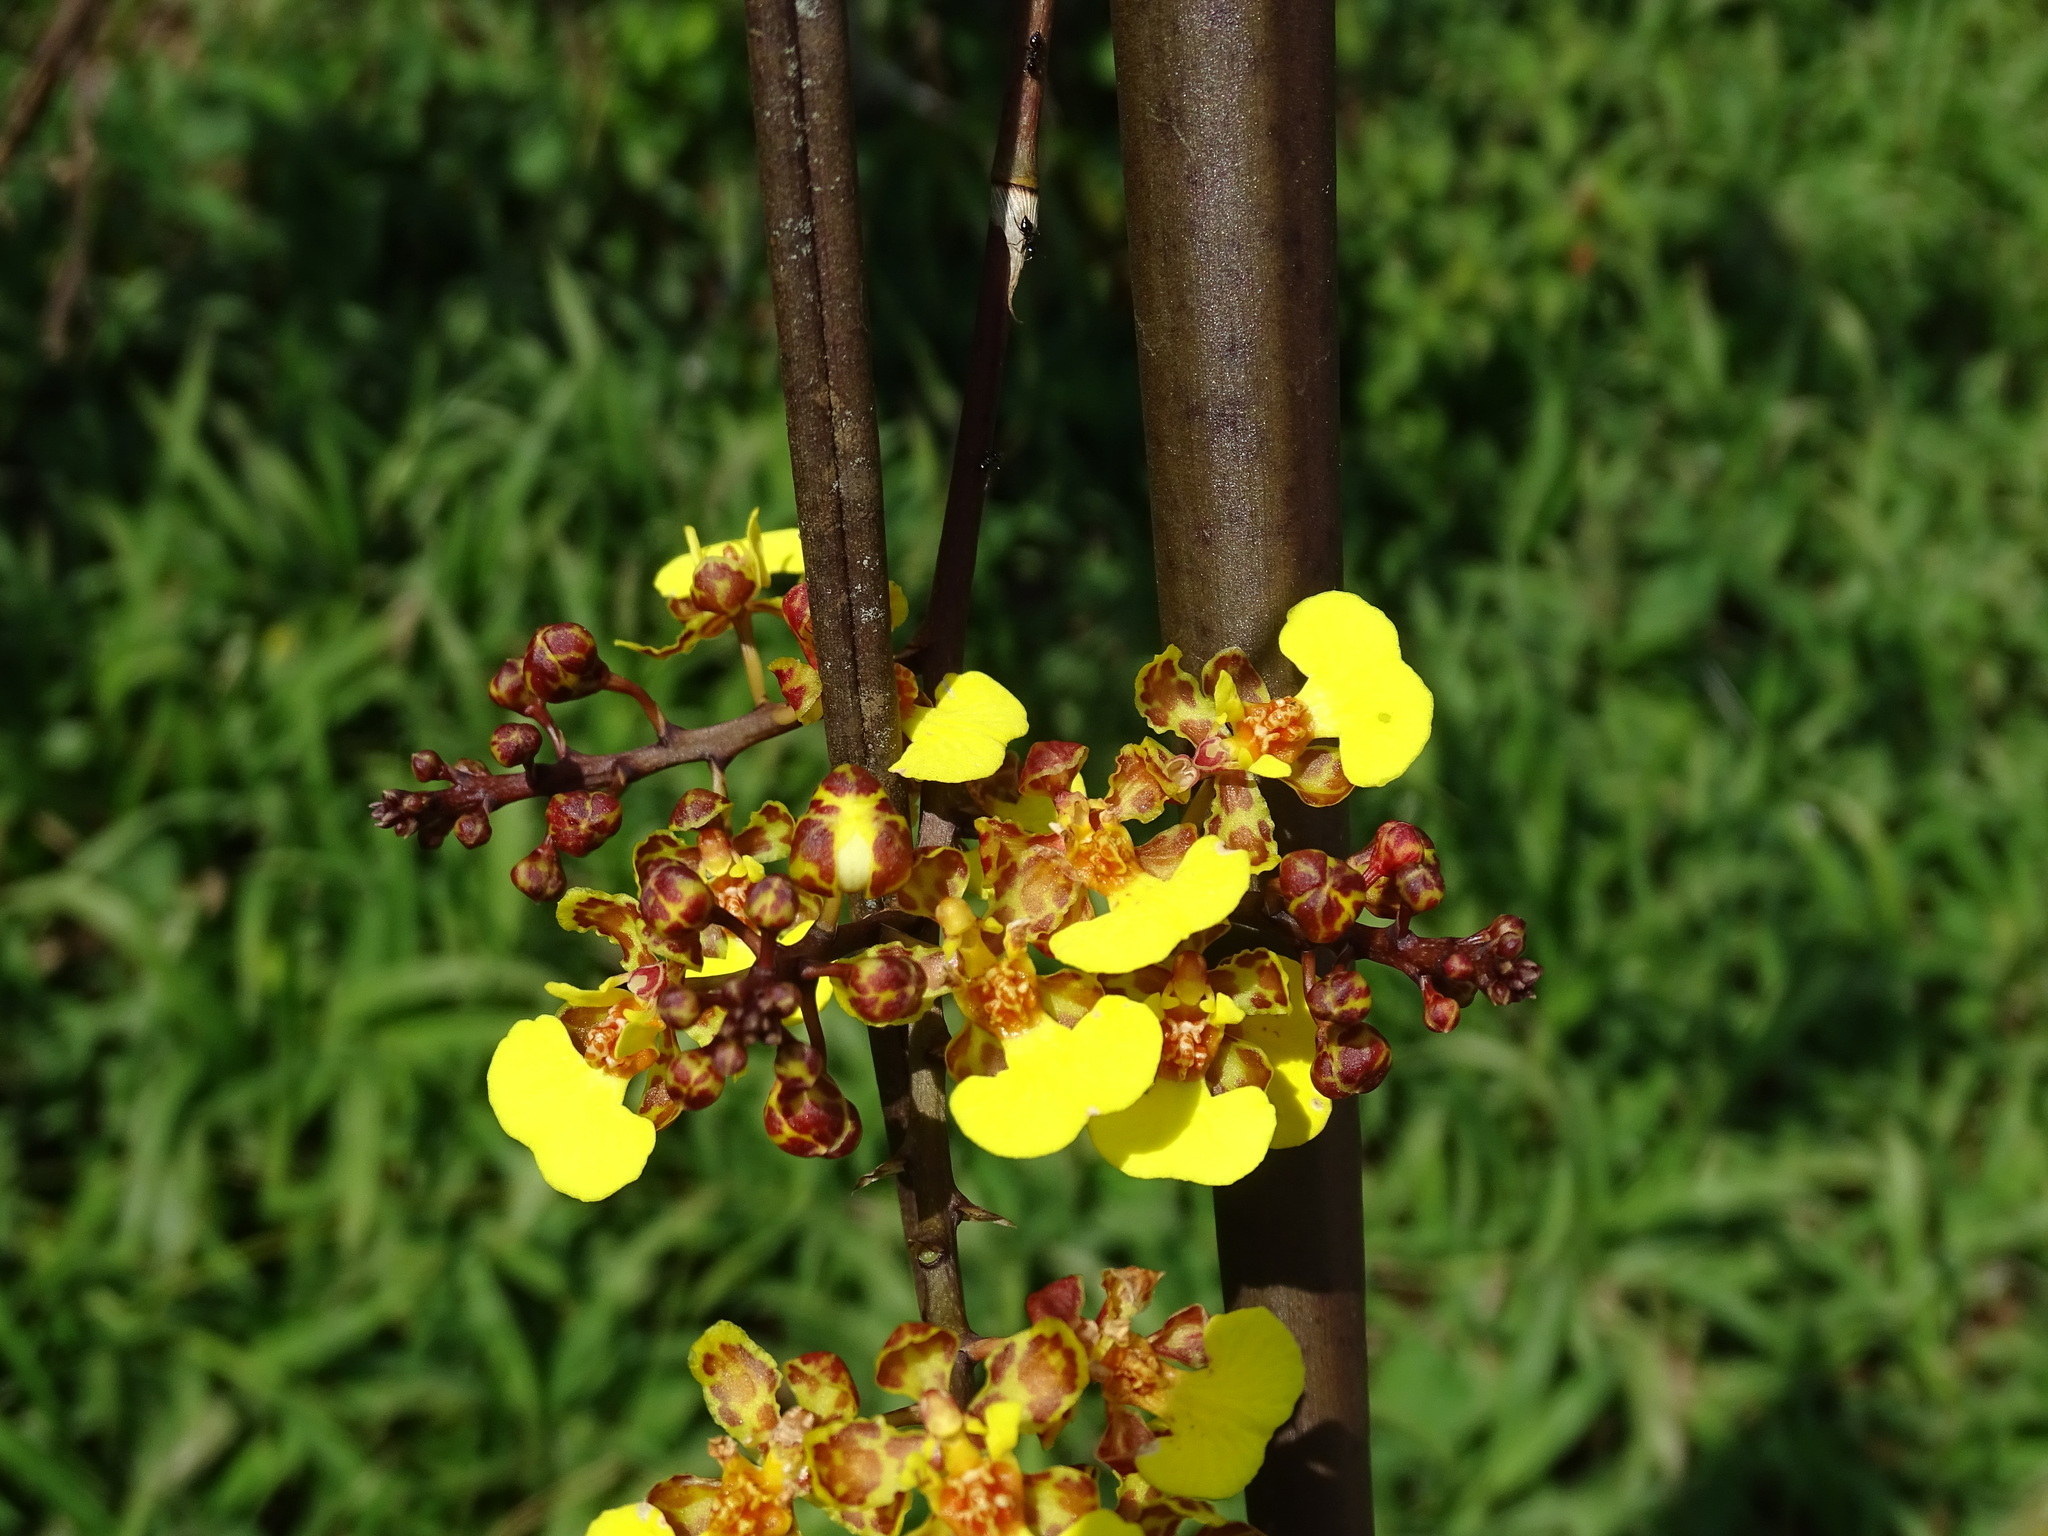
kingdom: Plantae
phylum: Tracheophyta
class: Liliopsida
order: Asparagales
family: Orchidaceae
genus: Trichocentrum
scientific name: Trichocentrum ascendens
